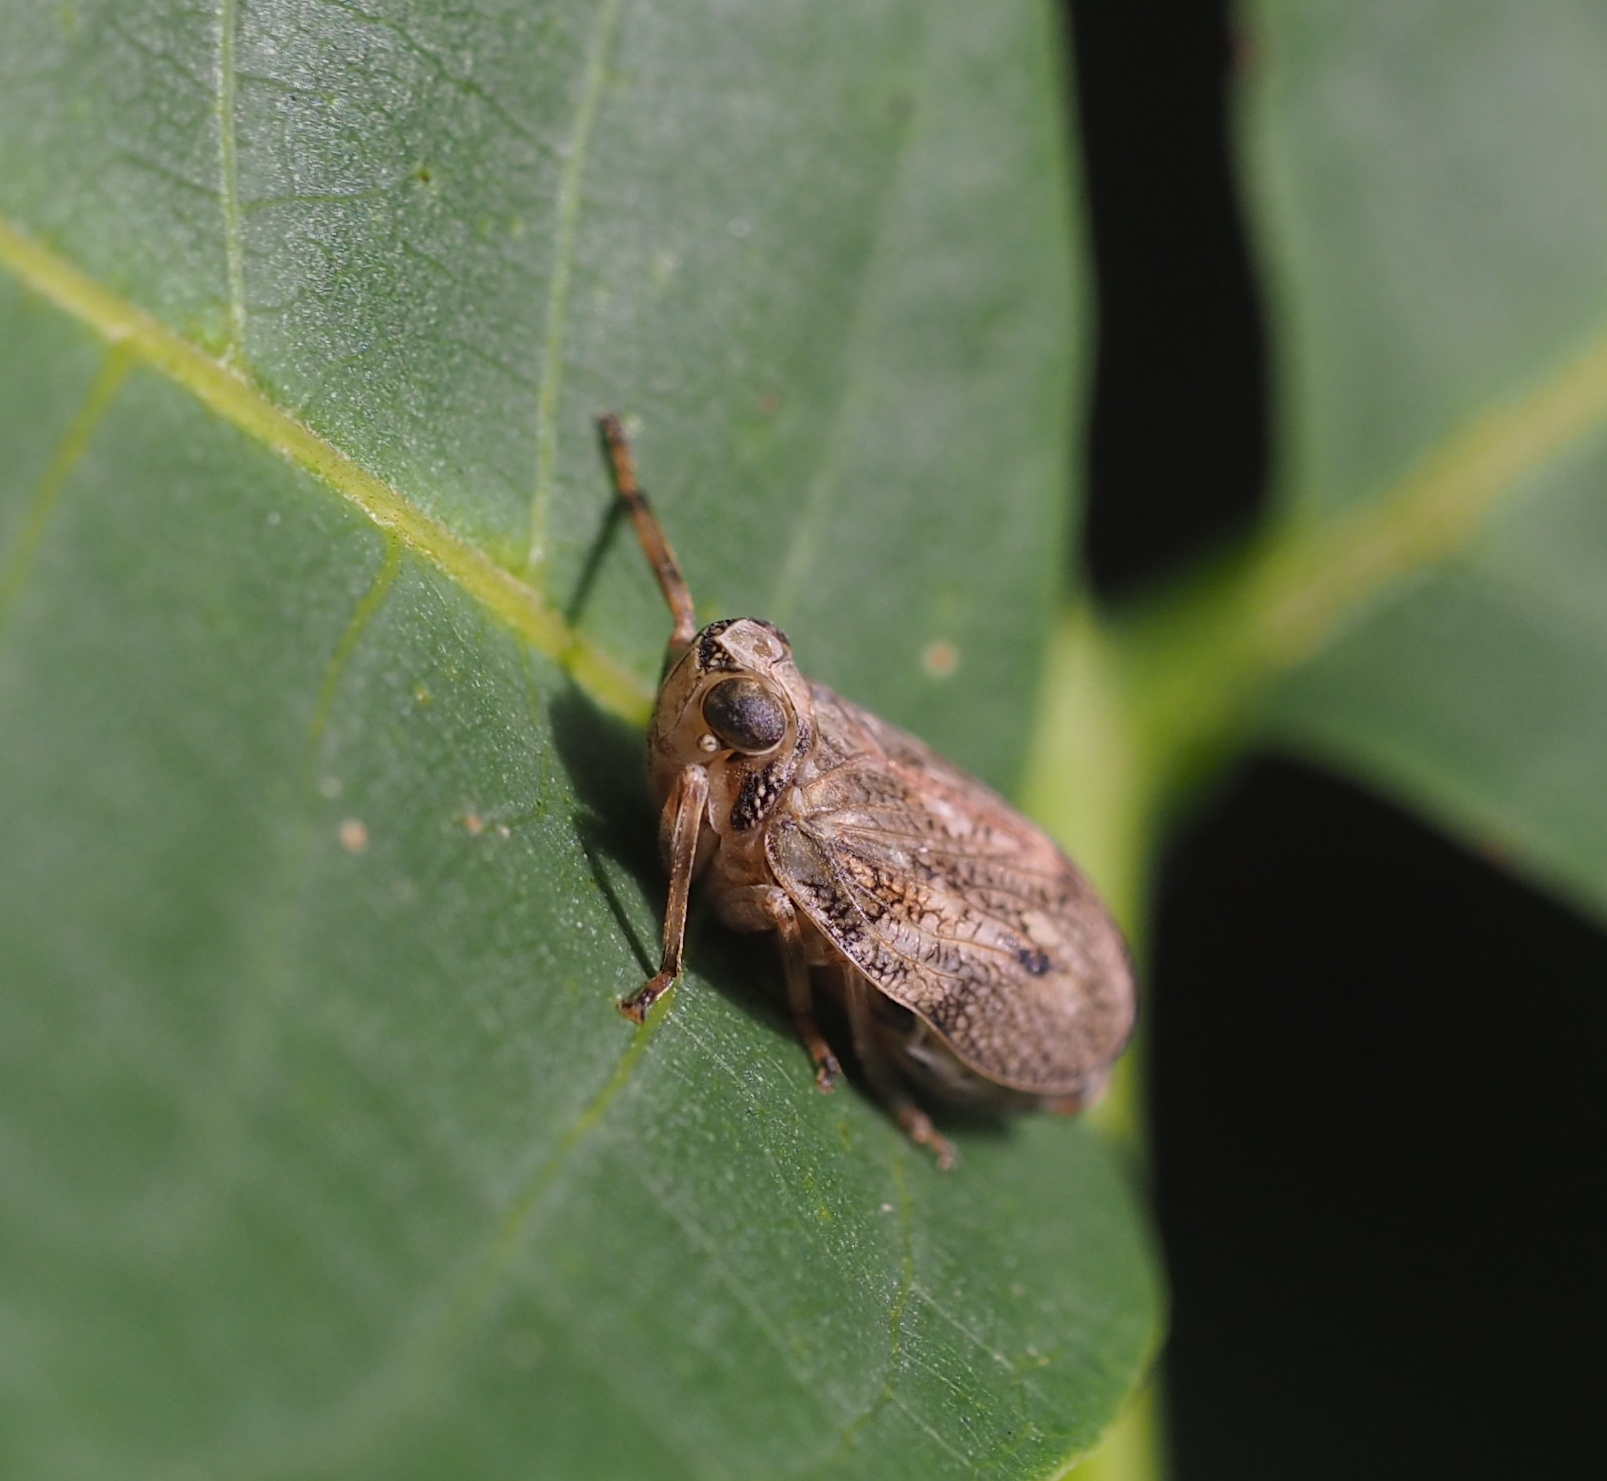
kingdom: Animalia
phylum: Arthropoda
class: Insecta
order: Hemiptera
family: Issidae
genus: Issus
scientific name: Issus coleoptratus
